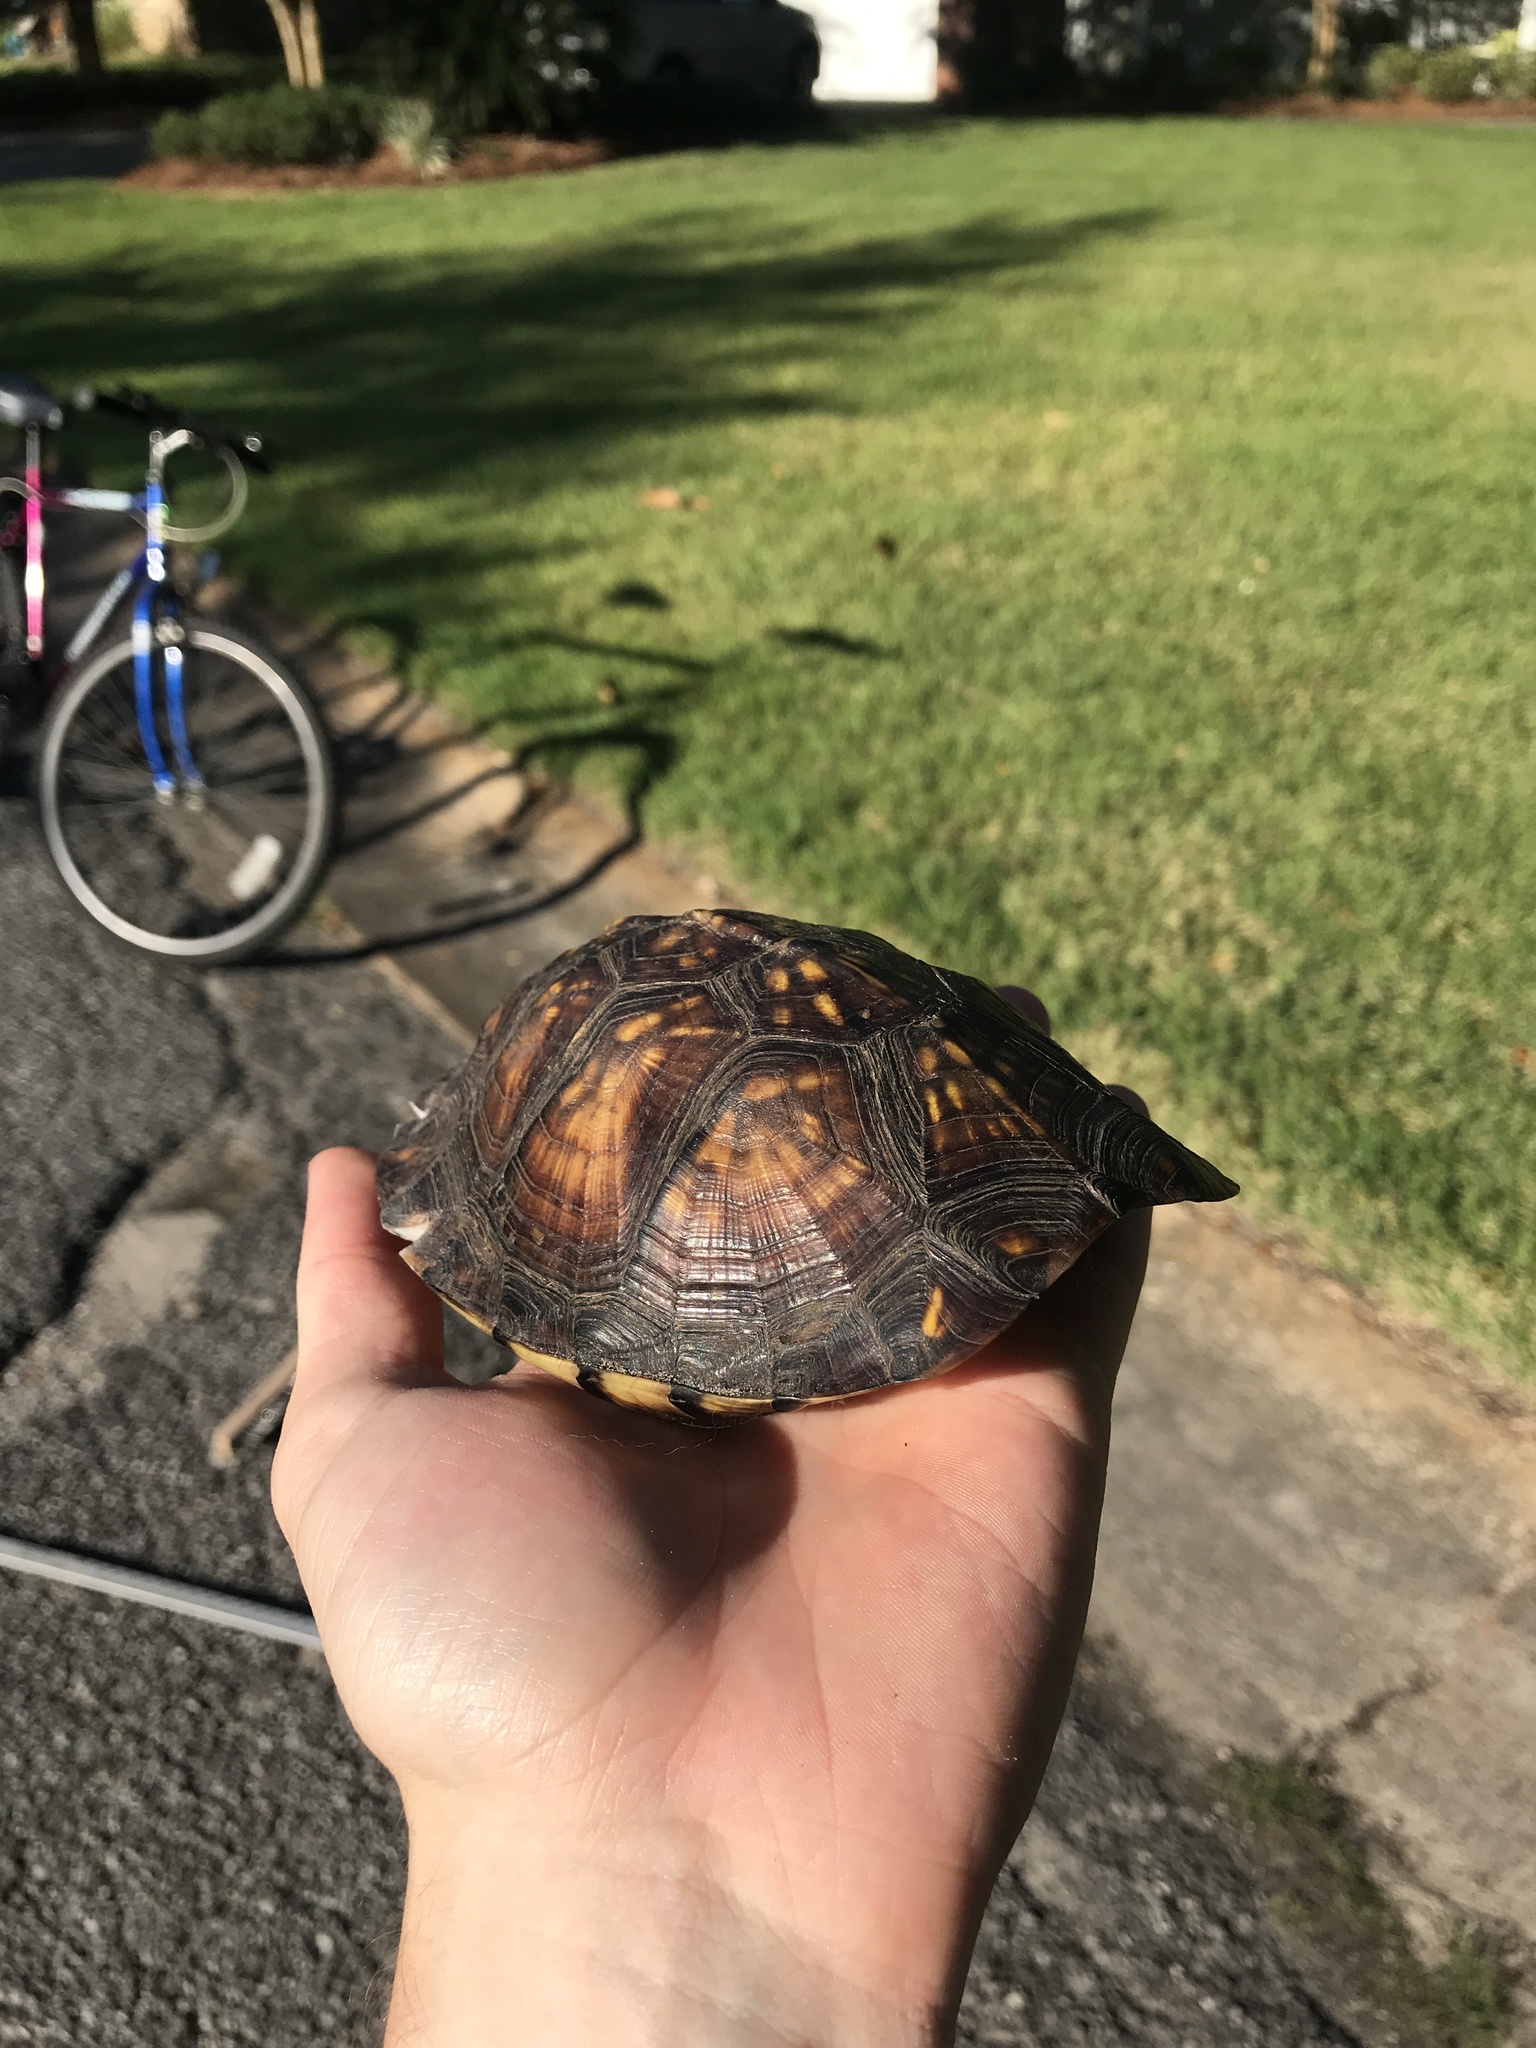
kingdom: Animalia
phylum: Chordata
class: Testudines
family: Emydidae
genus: Terrapene
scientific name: Terrapene carolina
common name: Common box turtle
